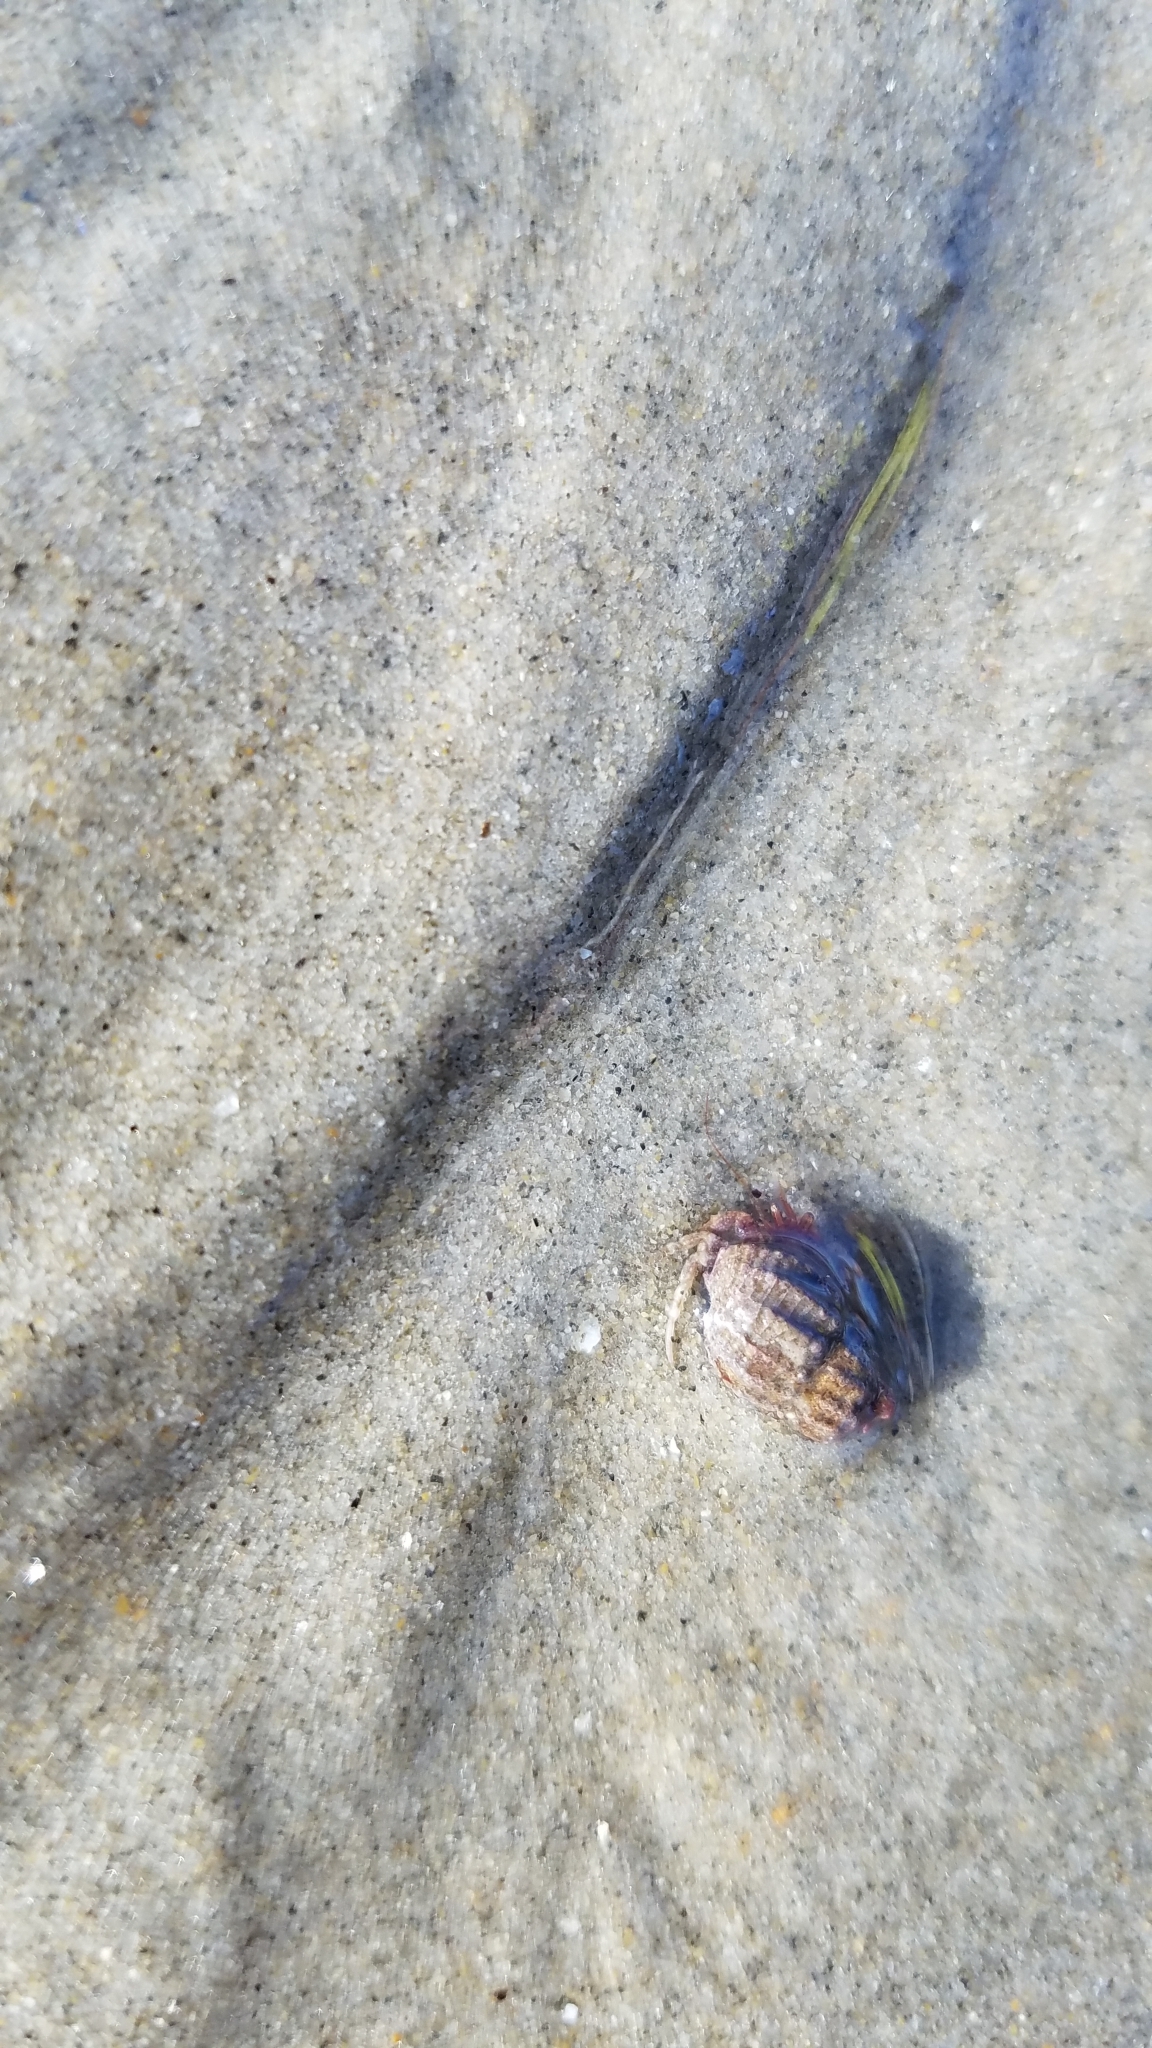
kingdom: Animalia
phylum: Arthropoda
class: Malacostraca
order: Decapoda
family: Paguridae
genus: Pagurus
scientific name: Pagurus
